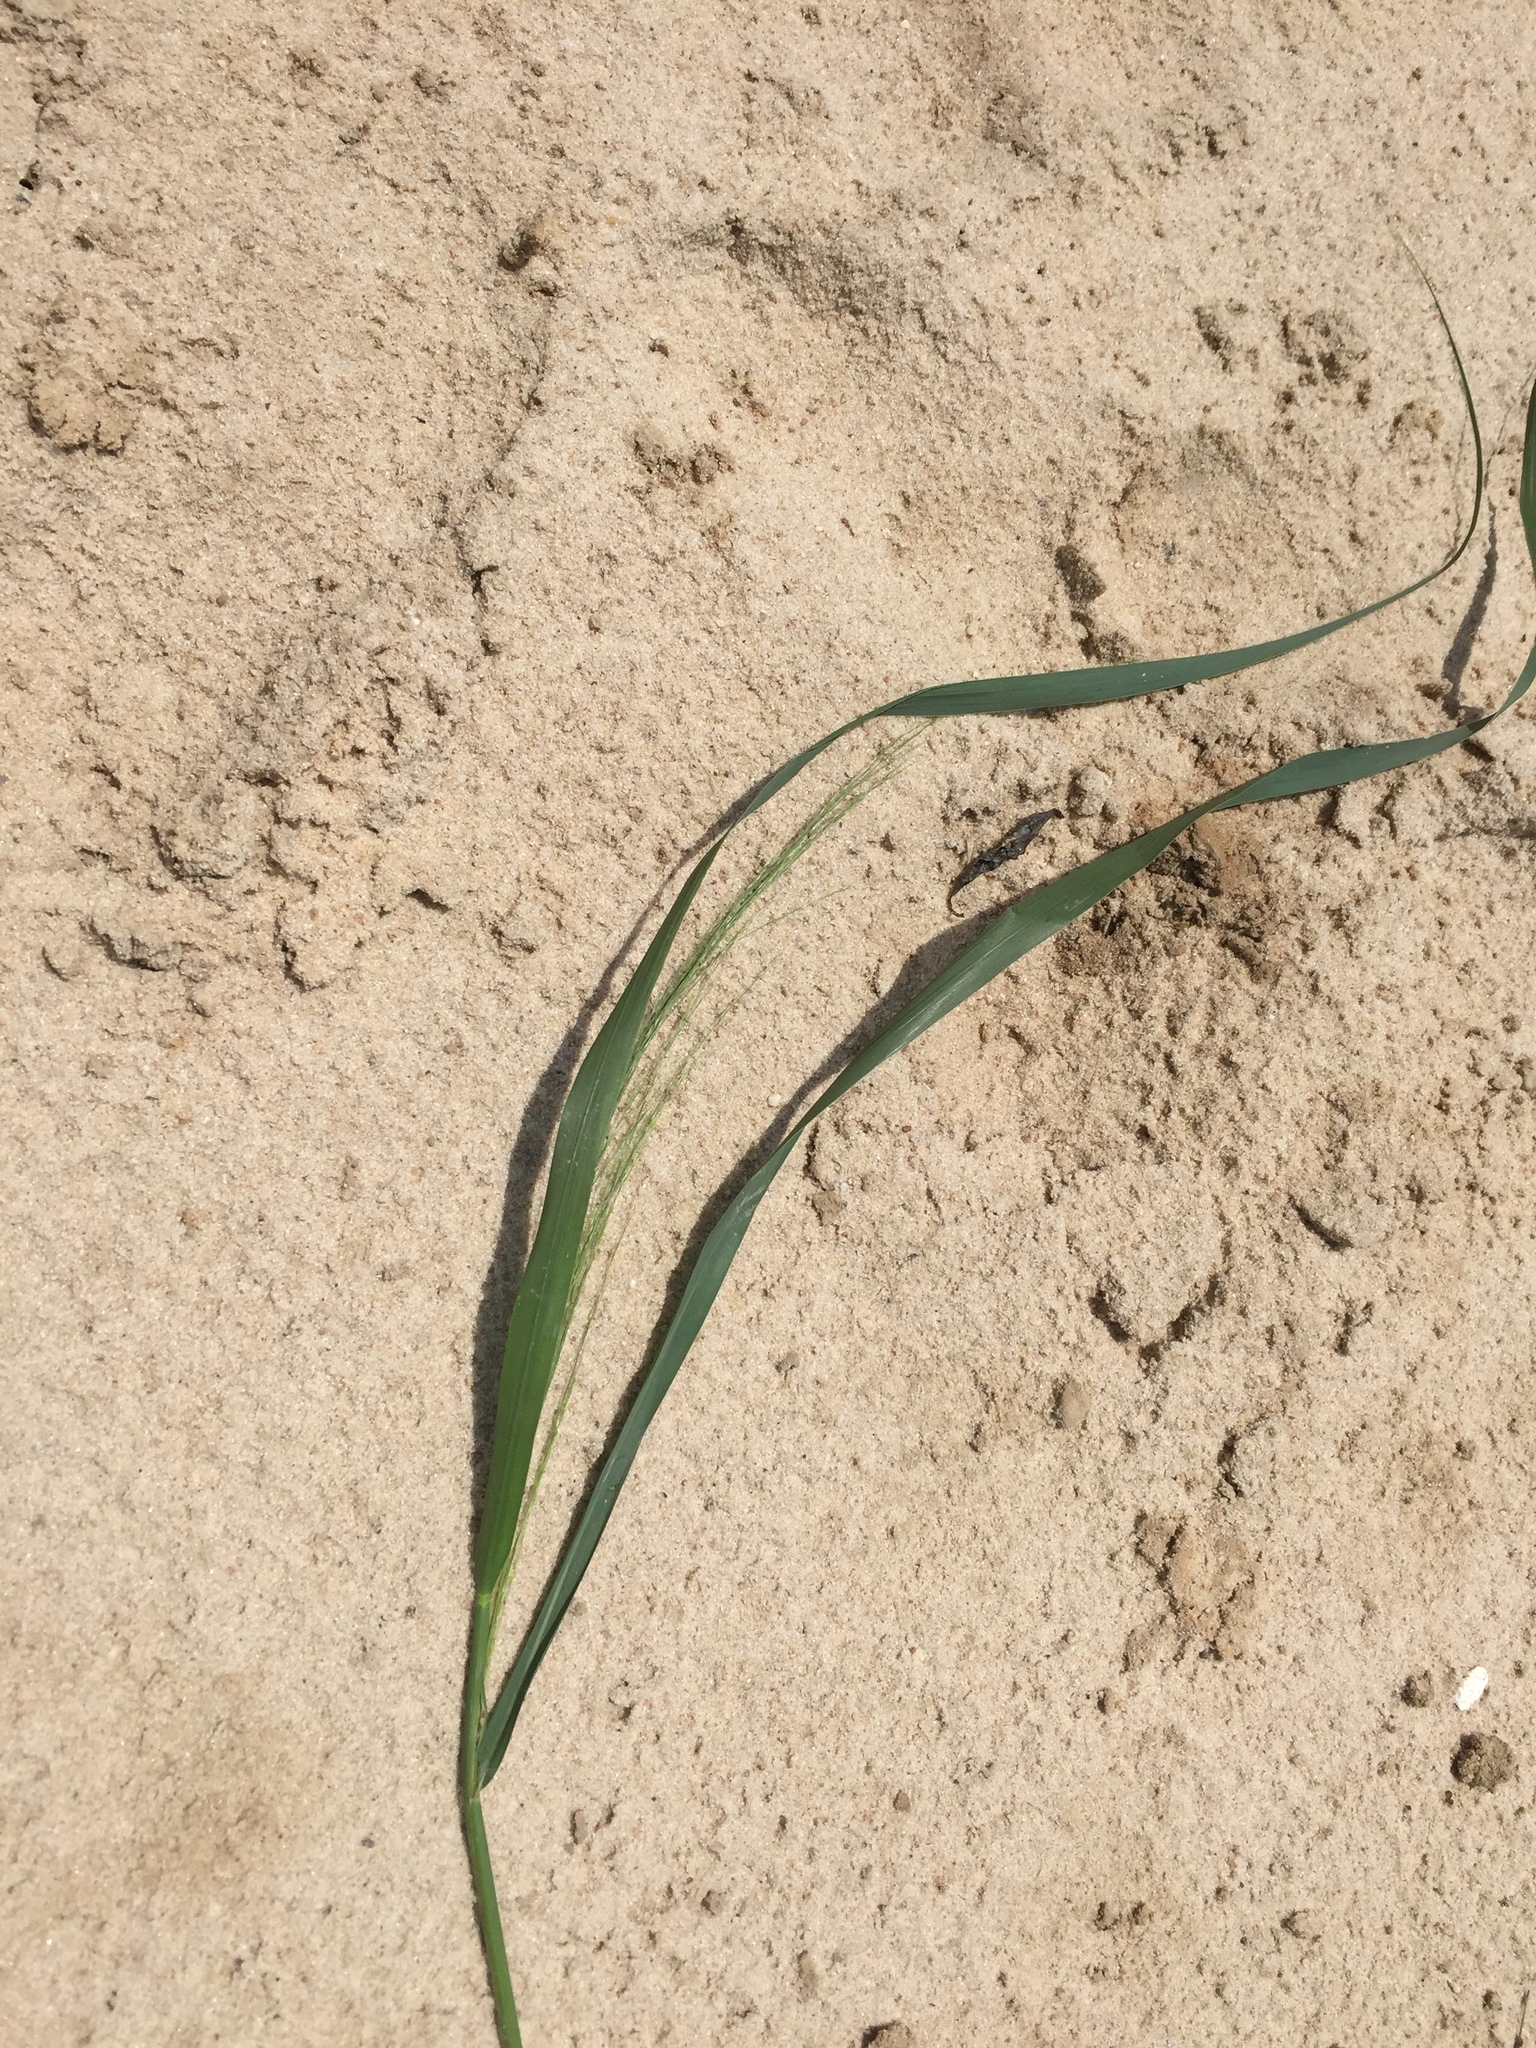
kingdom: Plantae
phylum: Tracheophyta
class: Liliopsida
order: Poales
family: Poaceae
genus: Panicum
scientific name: Panicum virgatum
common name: Switchgrass
